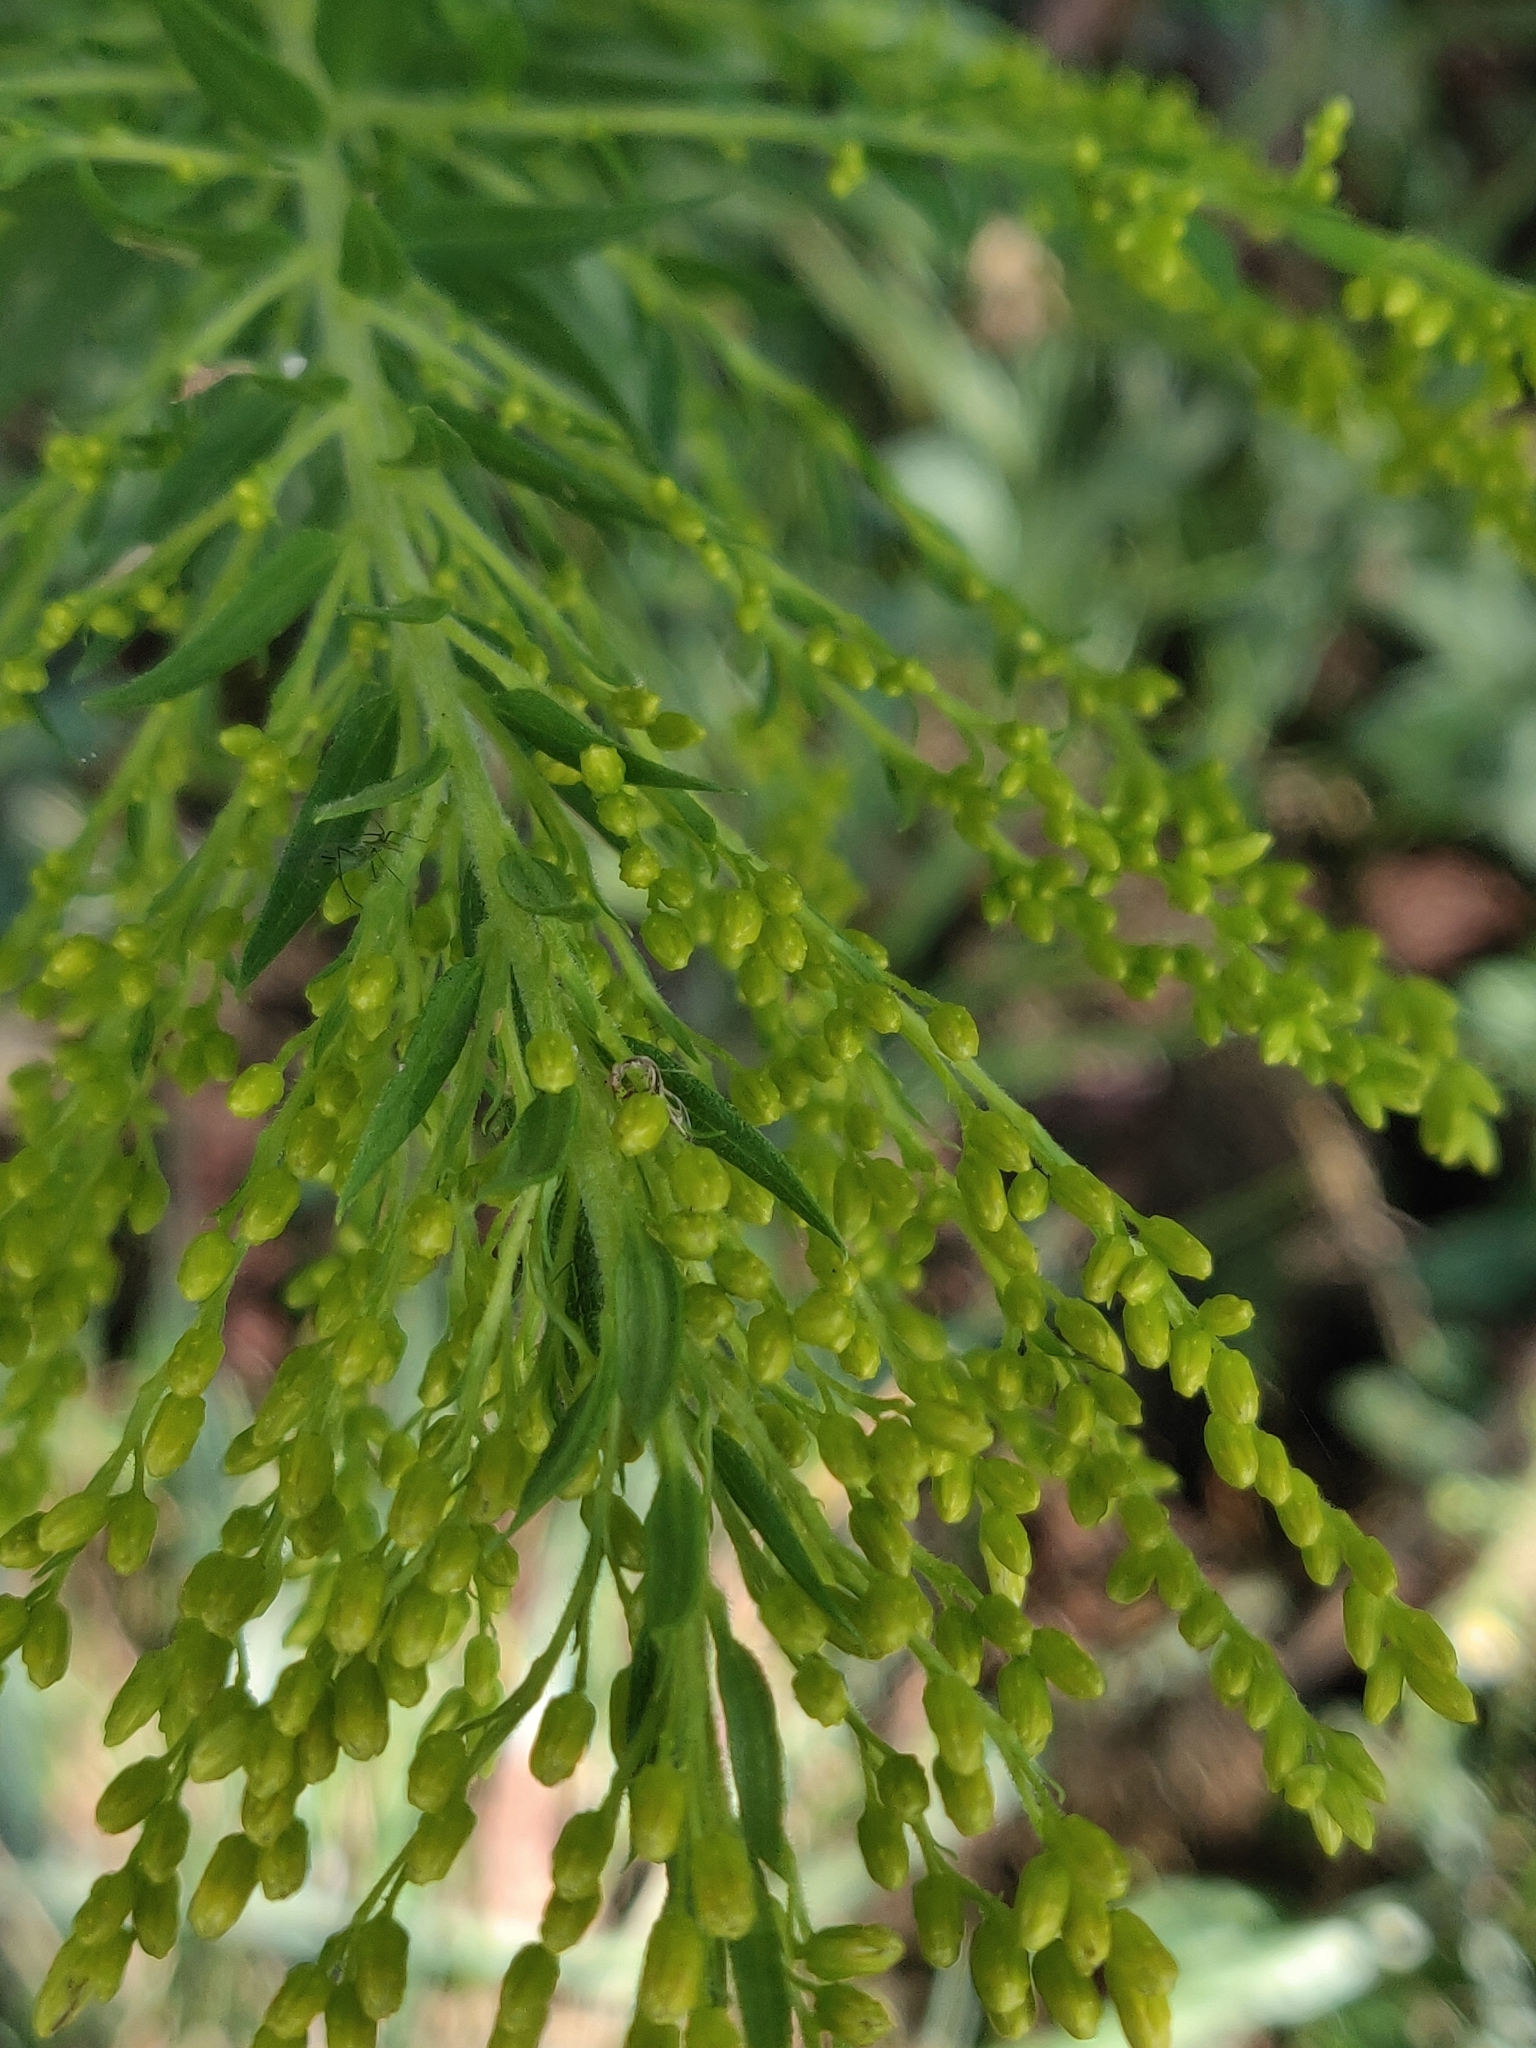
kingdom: Plantae
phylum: Tracheophyta
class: Magnoliopsida
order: Asterales
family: Asteraceae
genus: Solidago
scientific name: Solidago
